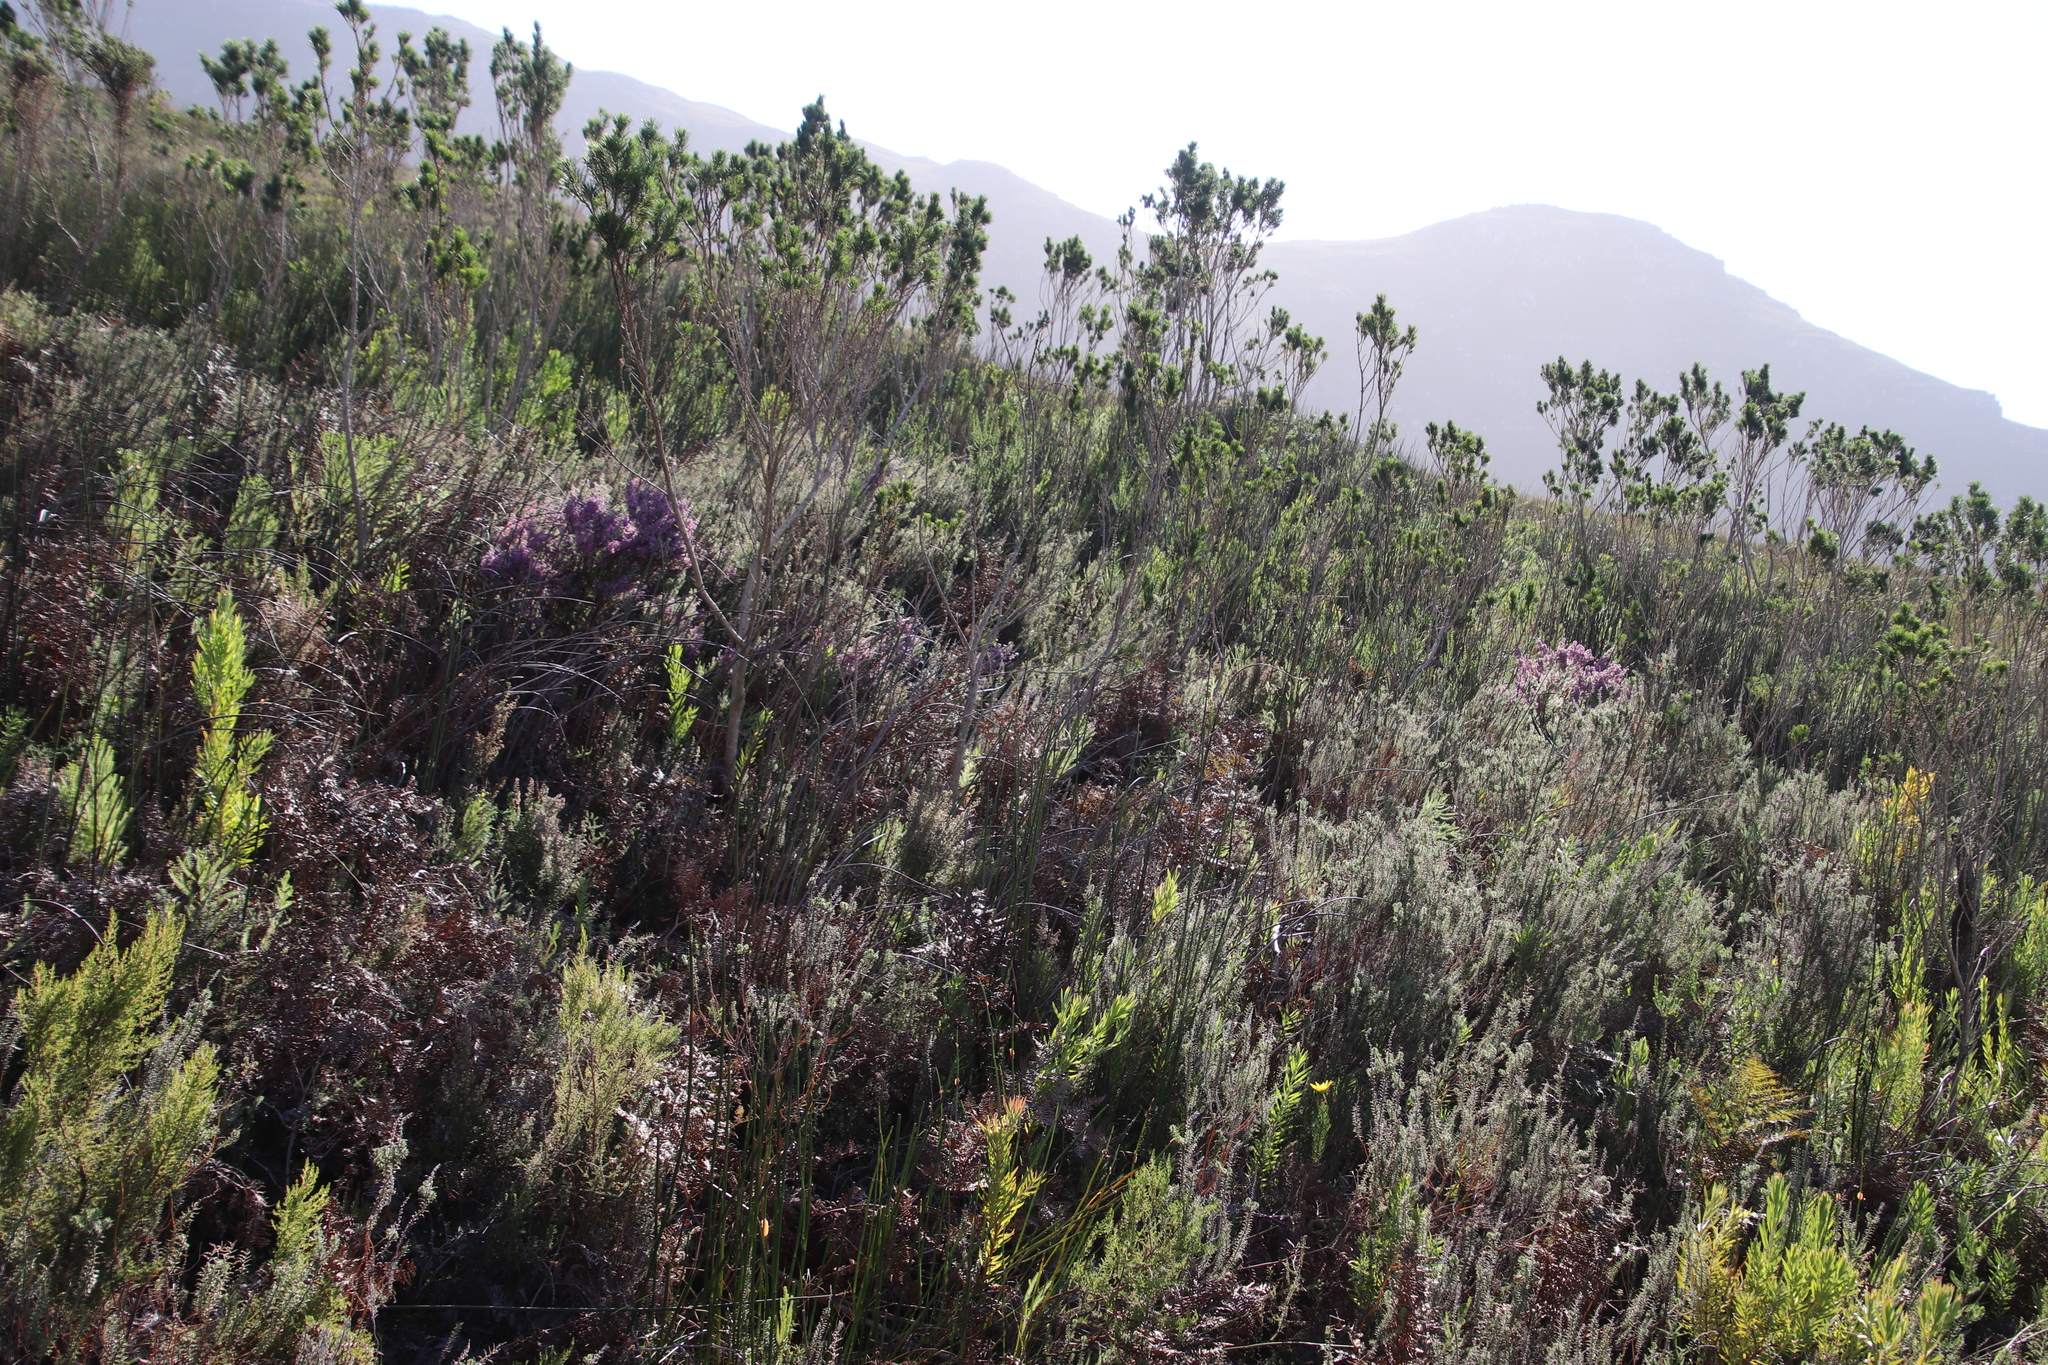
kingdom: Plantae
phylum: Tracheophyta
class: Magnoliopsida
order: Ericales
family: Ericaceae
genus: Erica
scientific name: Erica hirtiflora
